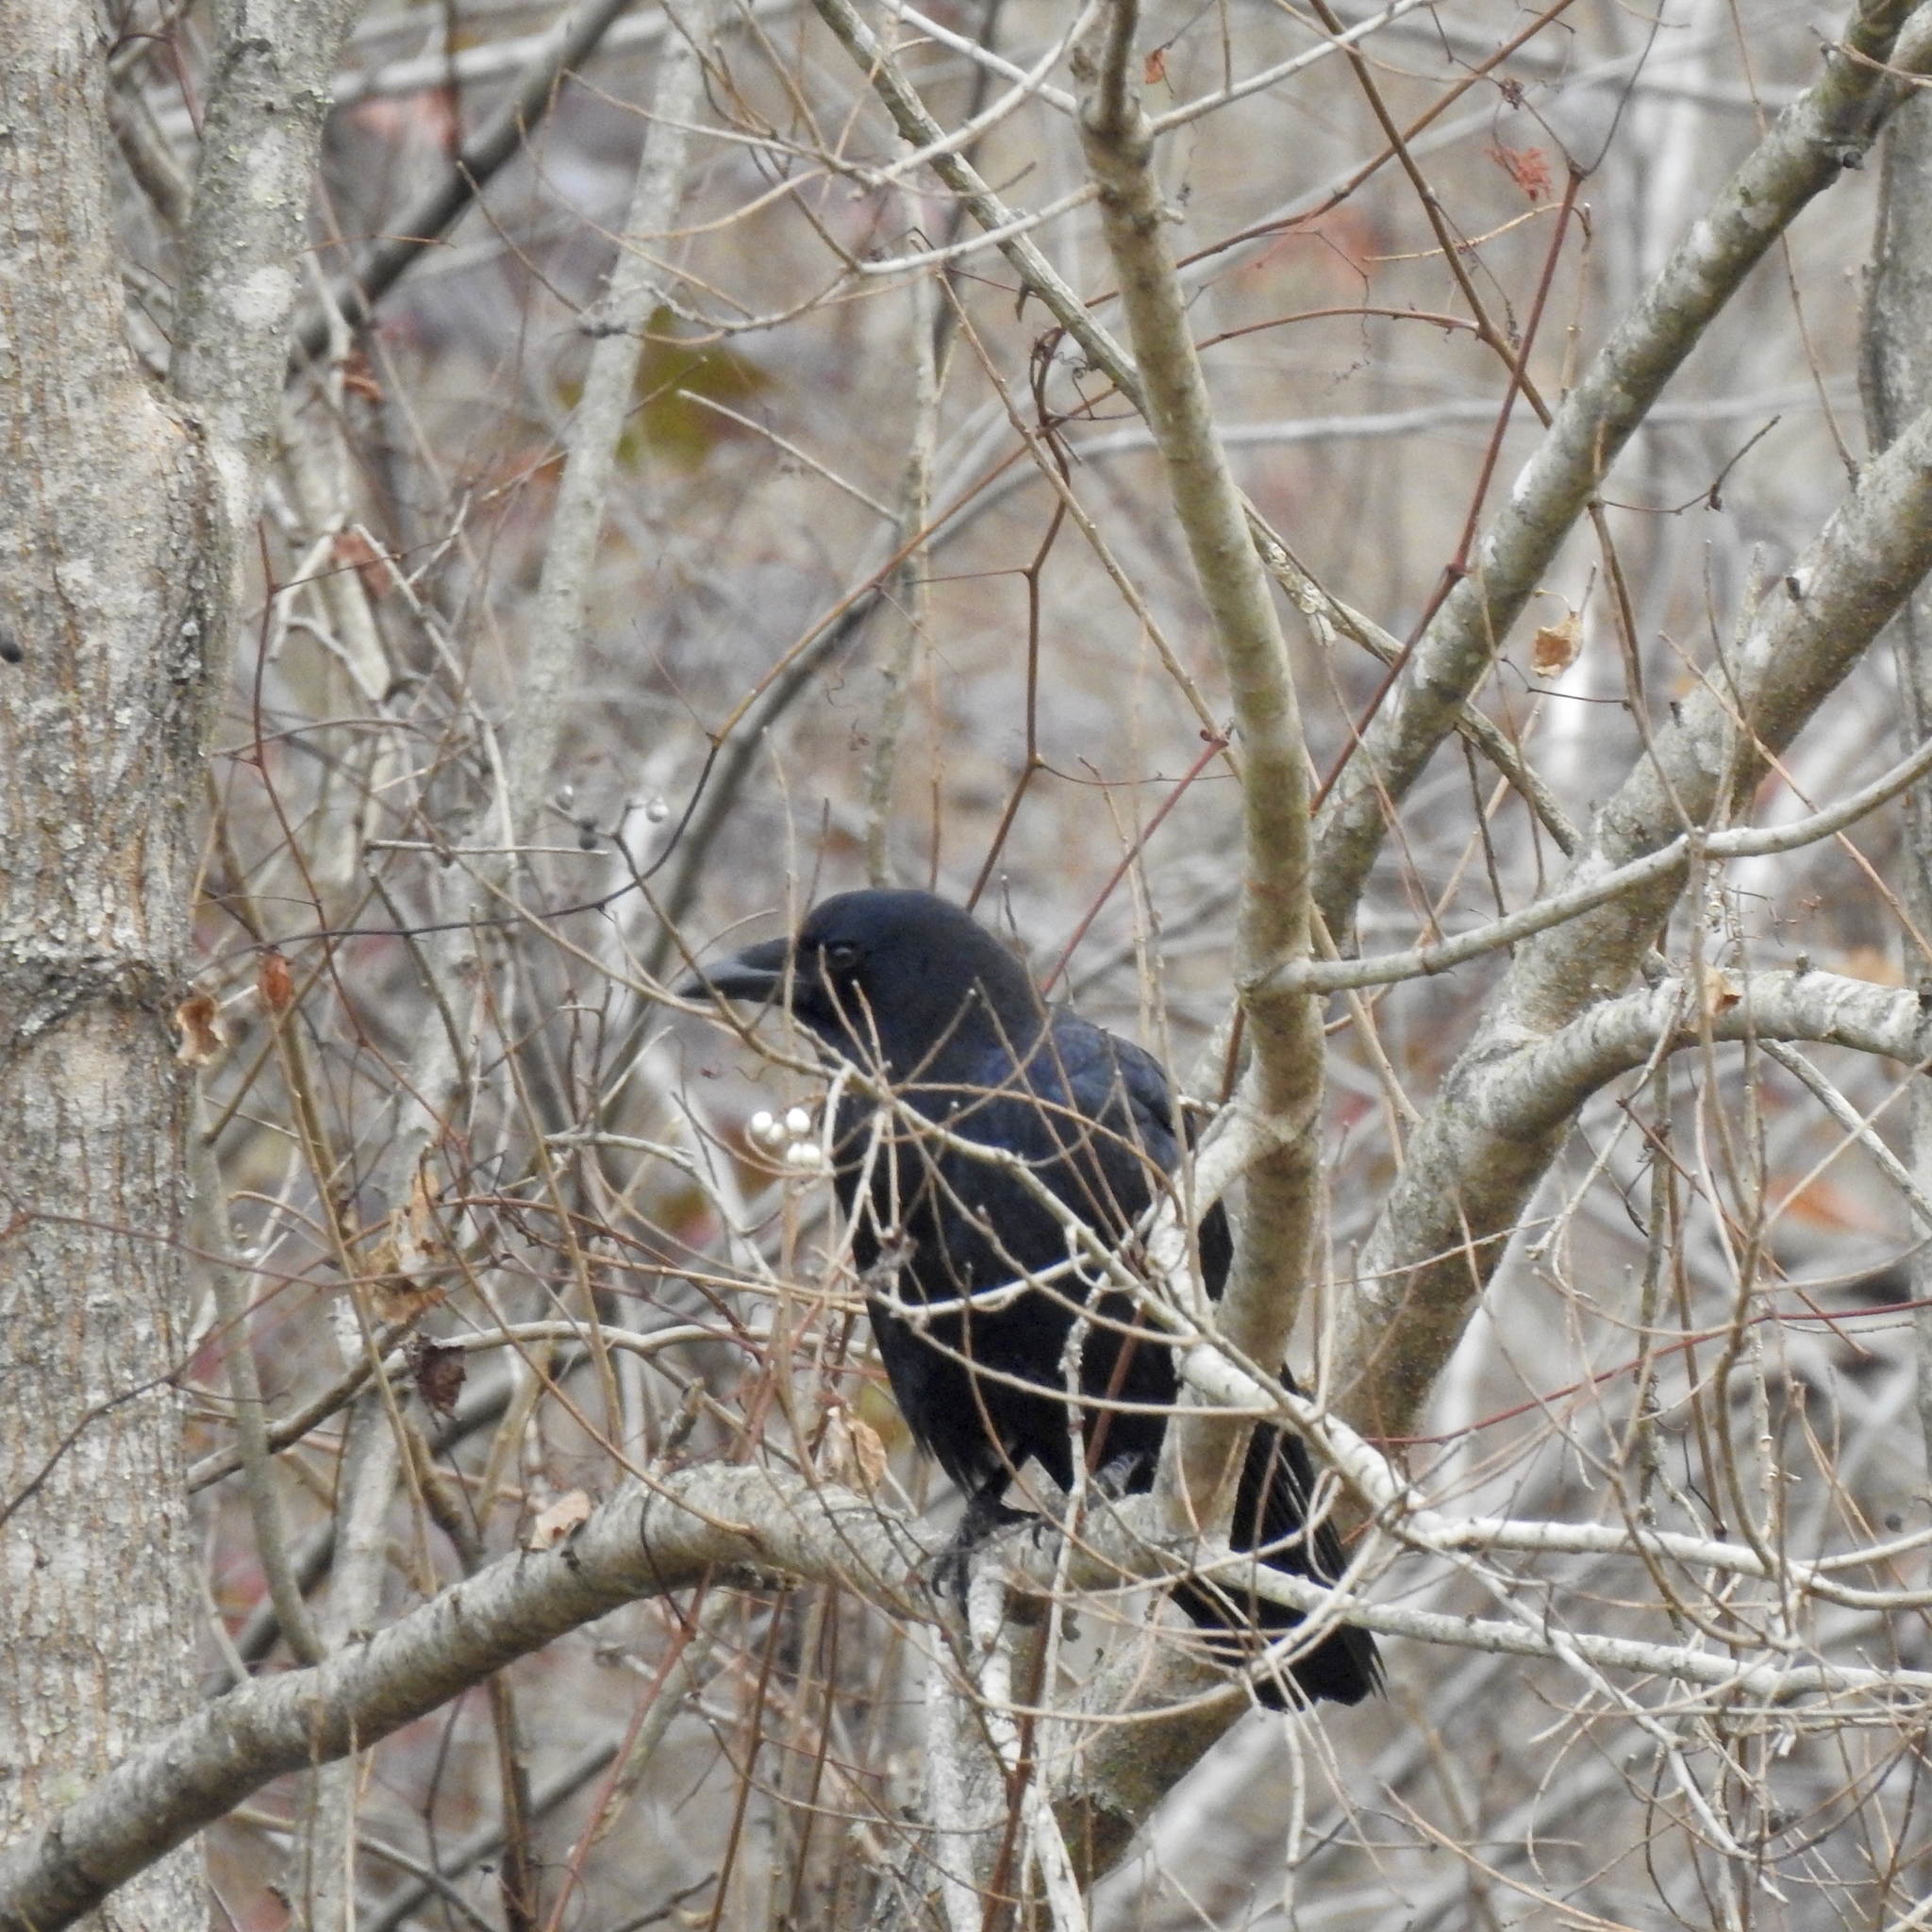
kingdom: Animalia
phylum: Chordata
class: Aves
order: Passeriformes
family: Corvidae
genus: Corvus
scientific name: Corvus brachyrhynchos
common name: American crow
